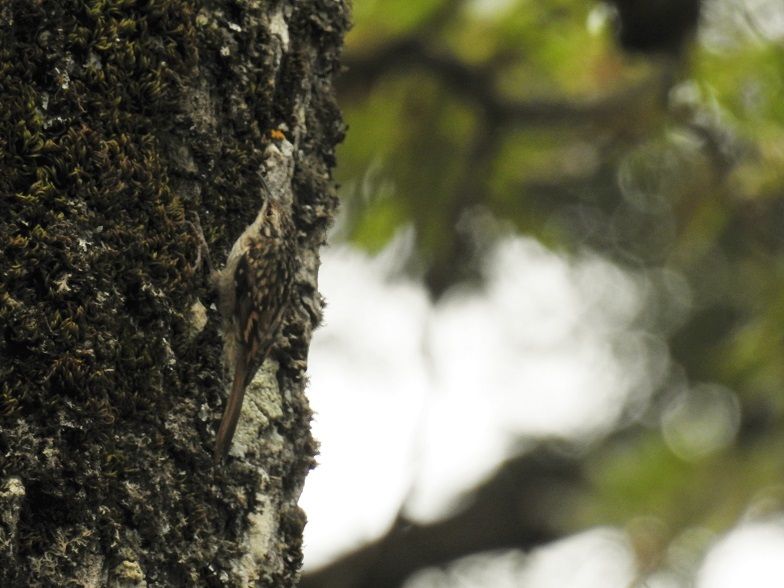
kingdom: Animalia
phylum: Chordata
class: Aves
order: Passeriformes
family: Certhiidae
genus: Certhia
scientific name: Certhia brachydactyla
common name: Short-toed treecreeper
